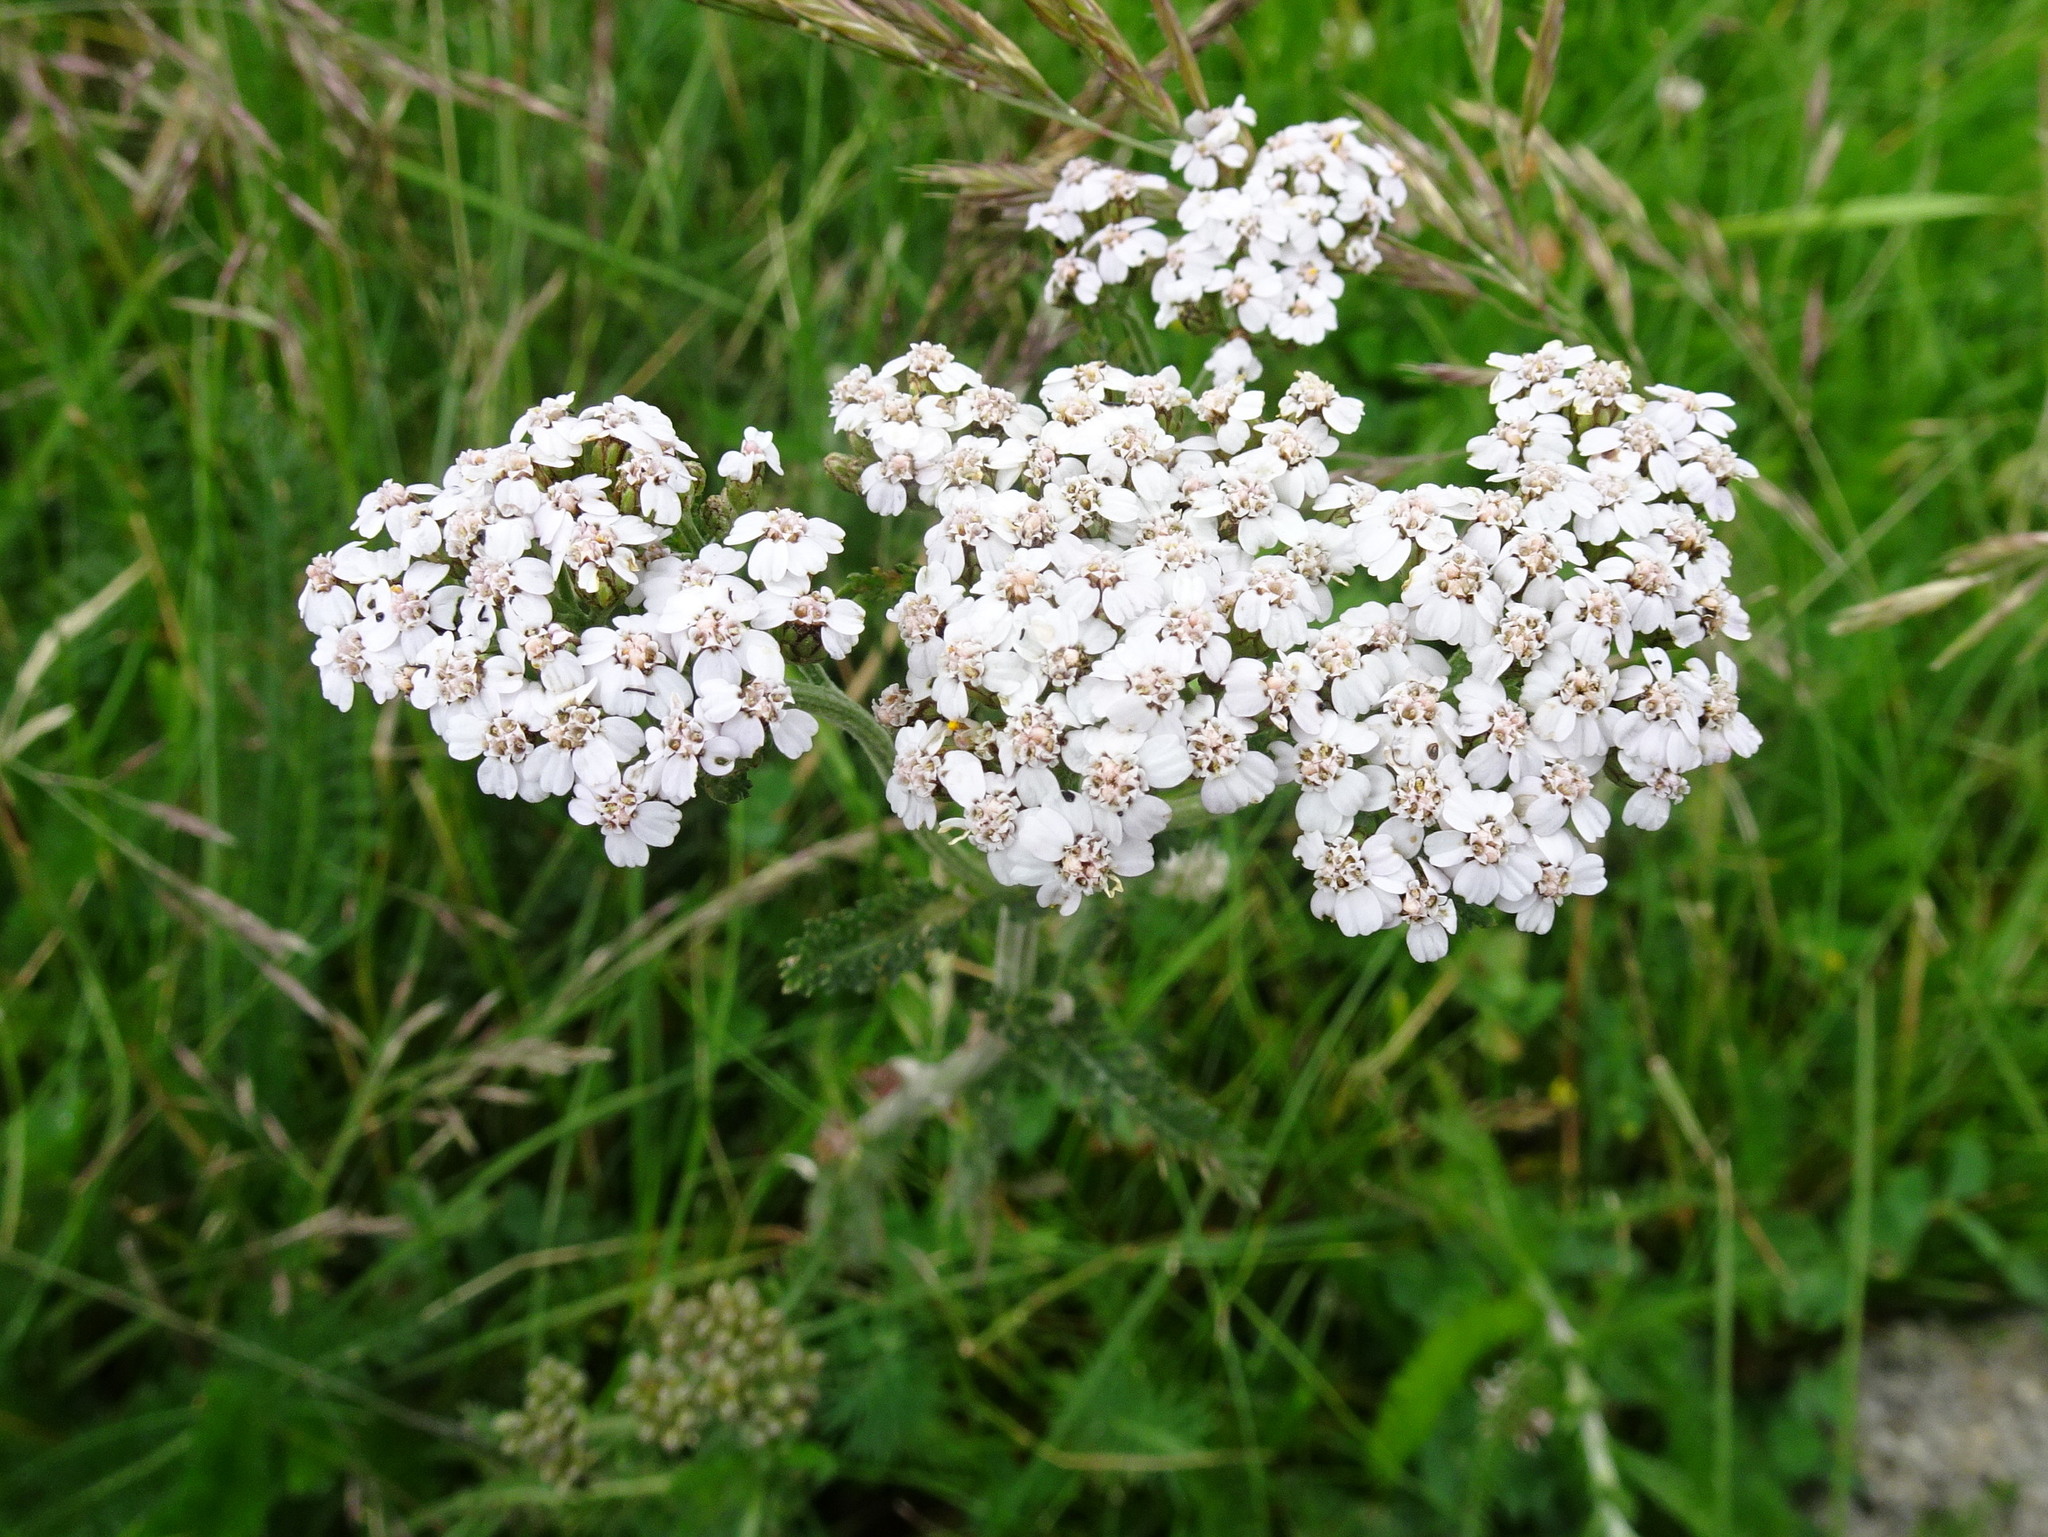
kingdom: Plantae
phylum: Tracheophyta
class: Magnoliopsida
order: Asterales
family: Asteraceae
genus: Achillea
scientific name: Achillea millefolium
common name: Yarrow
